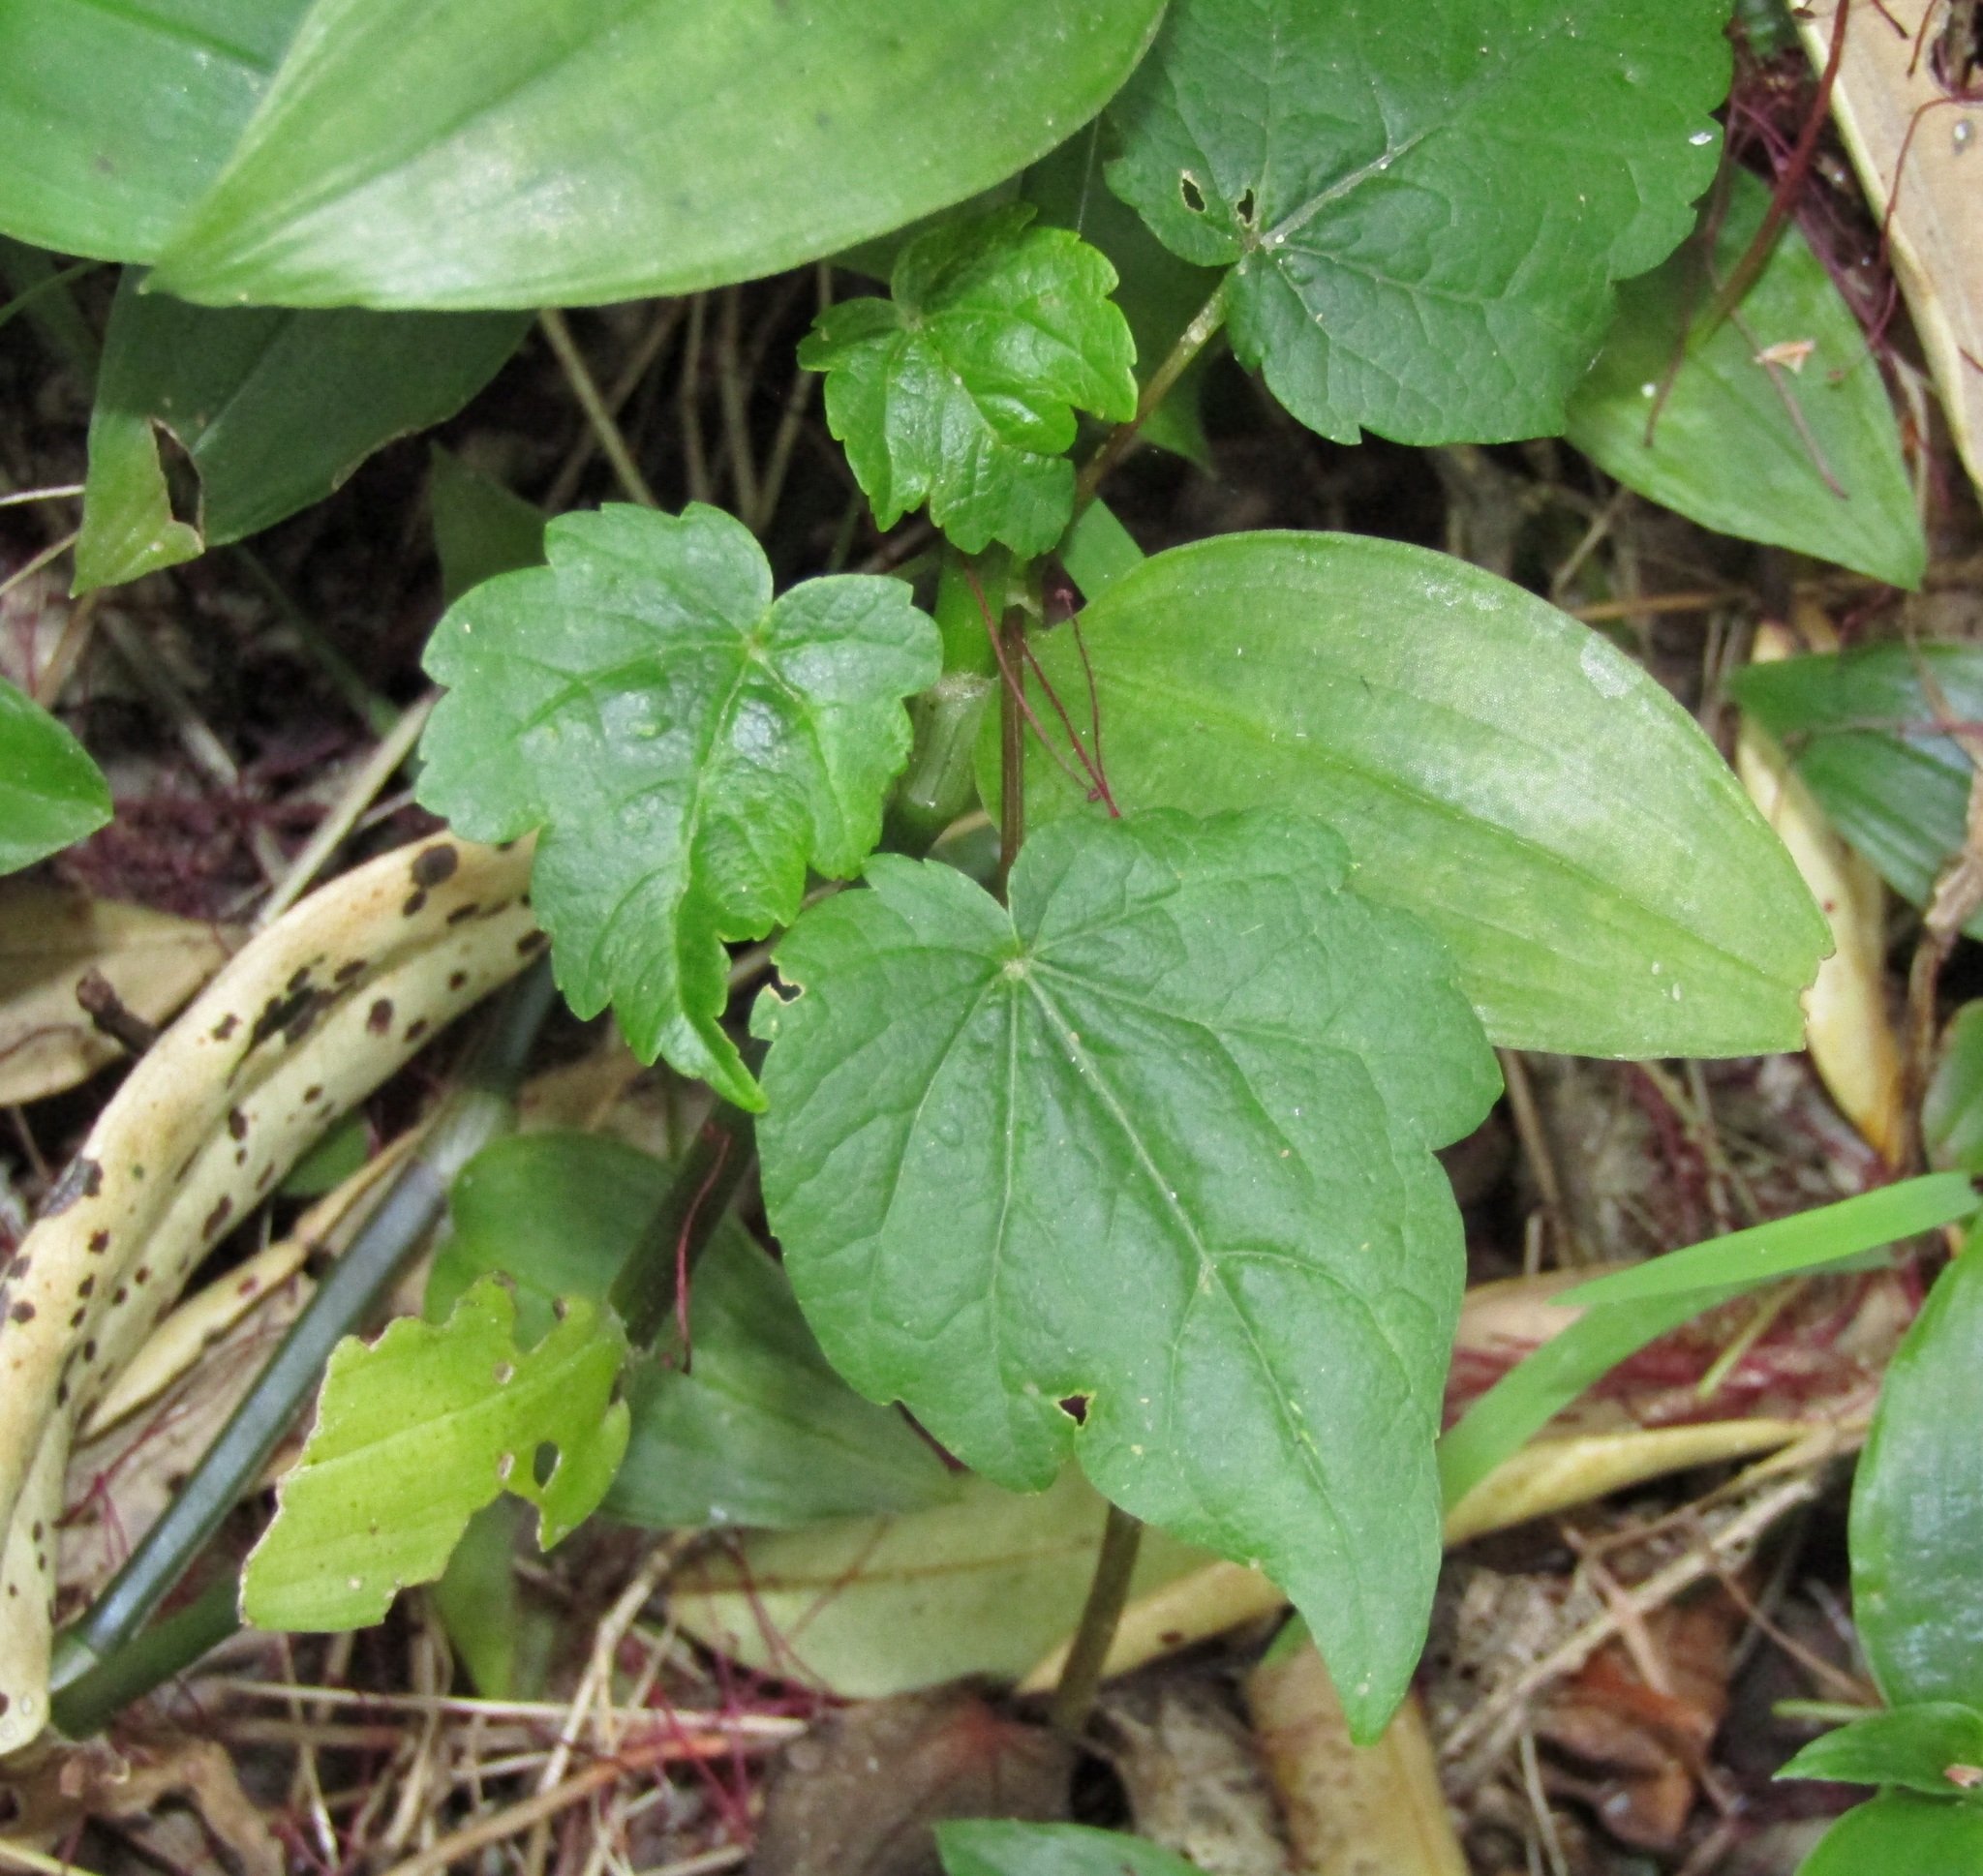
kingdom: Plantae
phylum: Tracheophyta
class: Magnoliopsida
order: Ranunculales
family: Ranunculaceae
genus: Clematis
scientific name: Clematis vitalba
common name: Evergreen clematis
